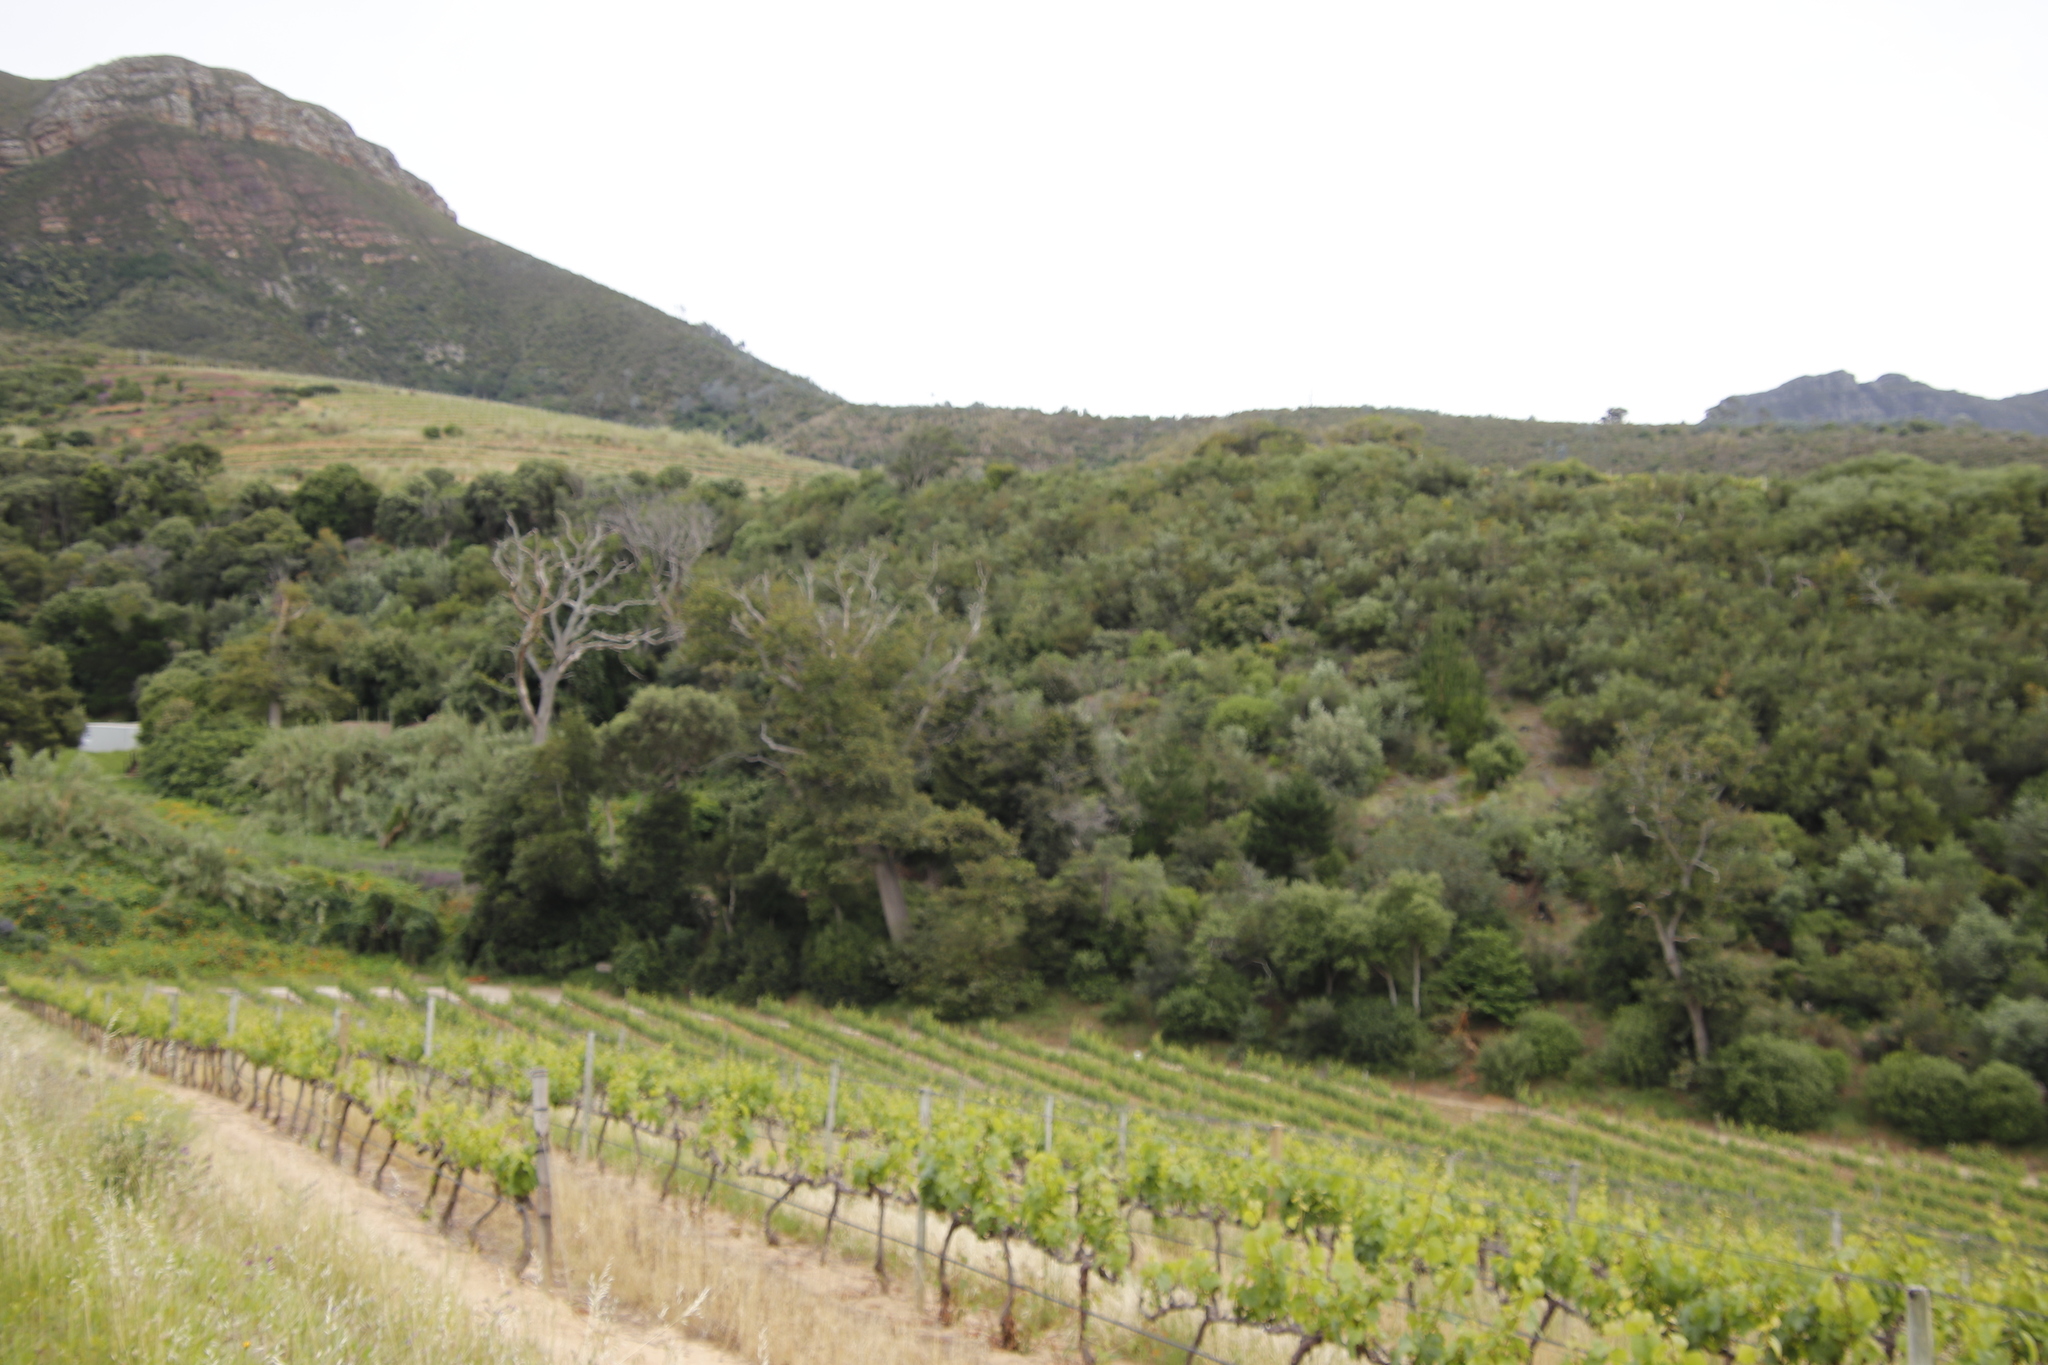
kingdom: Plantae
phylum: Tracheophyta
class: Magnoliopsida
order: Fagales
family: Fagaceae
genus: Quercus
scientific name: Quercus robur
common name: Pedunculate oak
